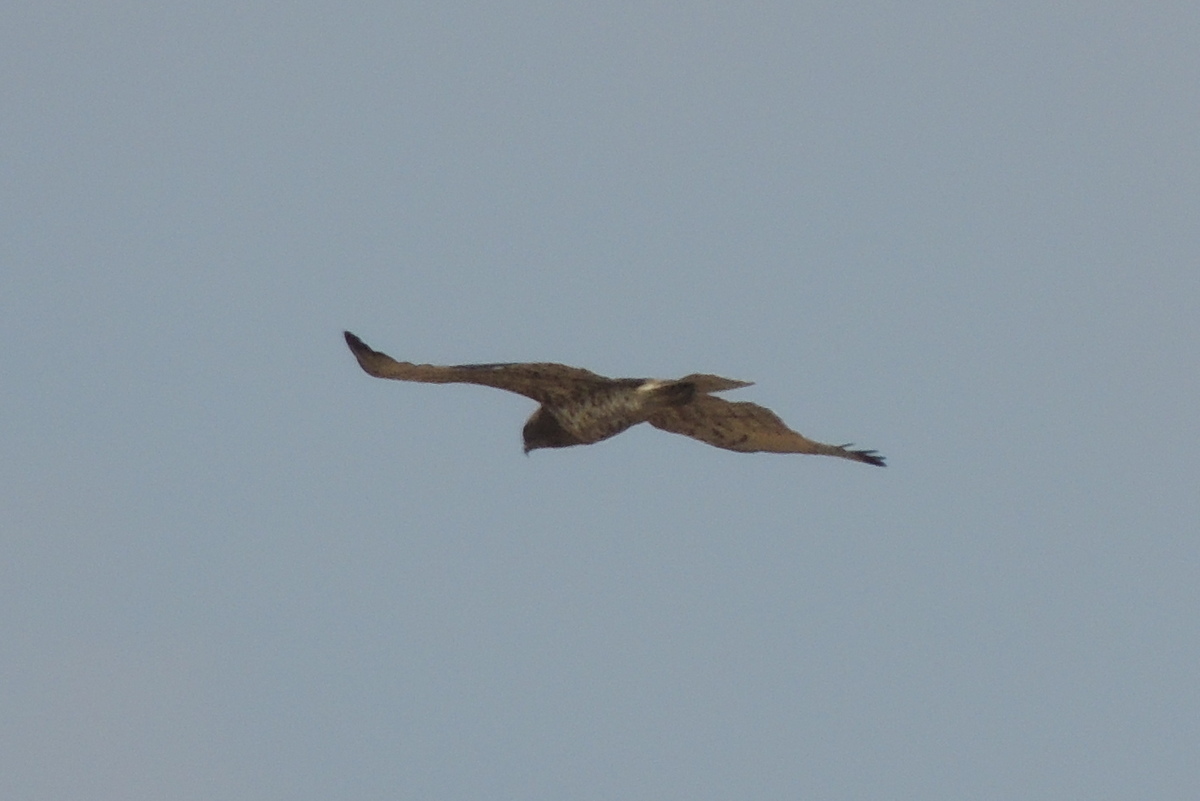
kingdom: Animalia
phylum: Chordata
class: Aves
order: Accipitriformes
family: Accipitridae
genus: Circaetus
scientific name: Circaetus gallicus
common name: Short-toed snake eagle
